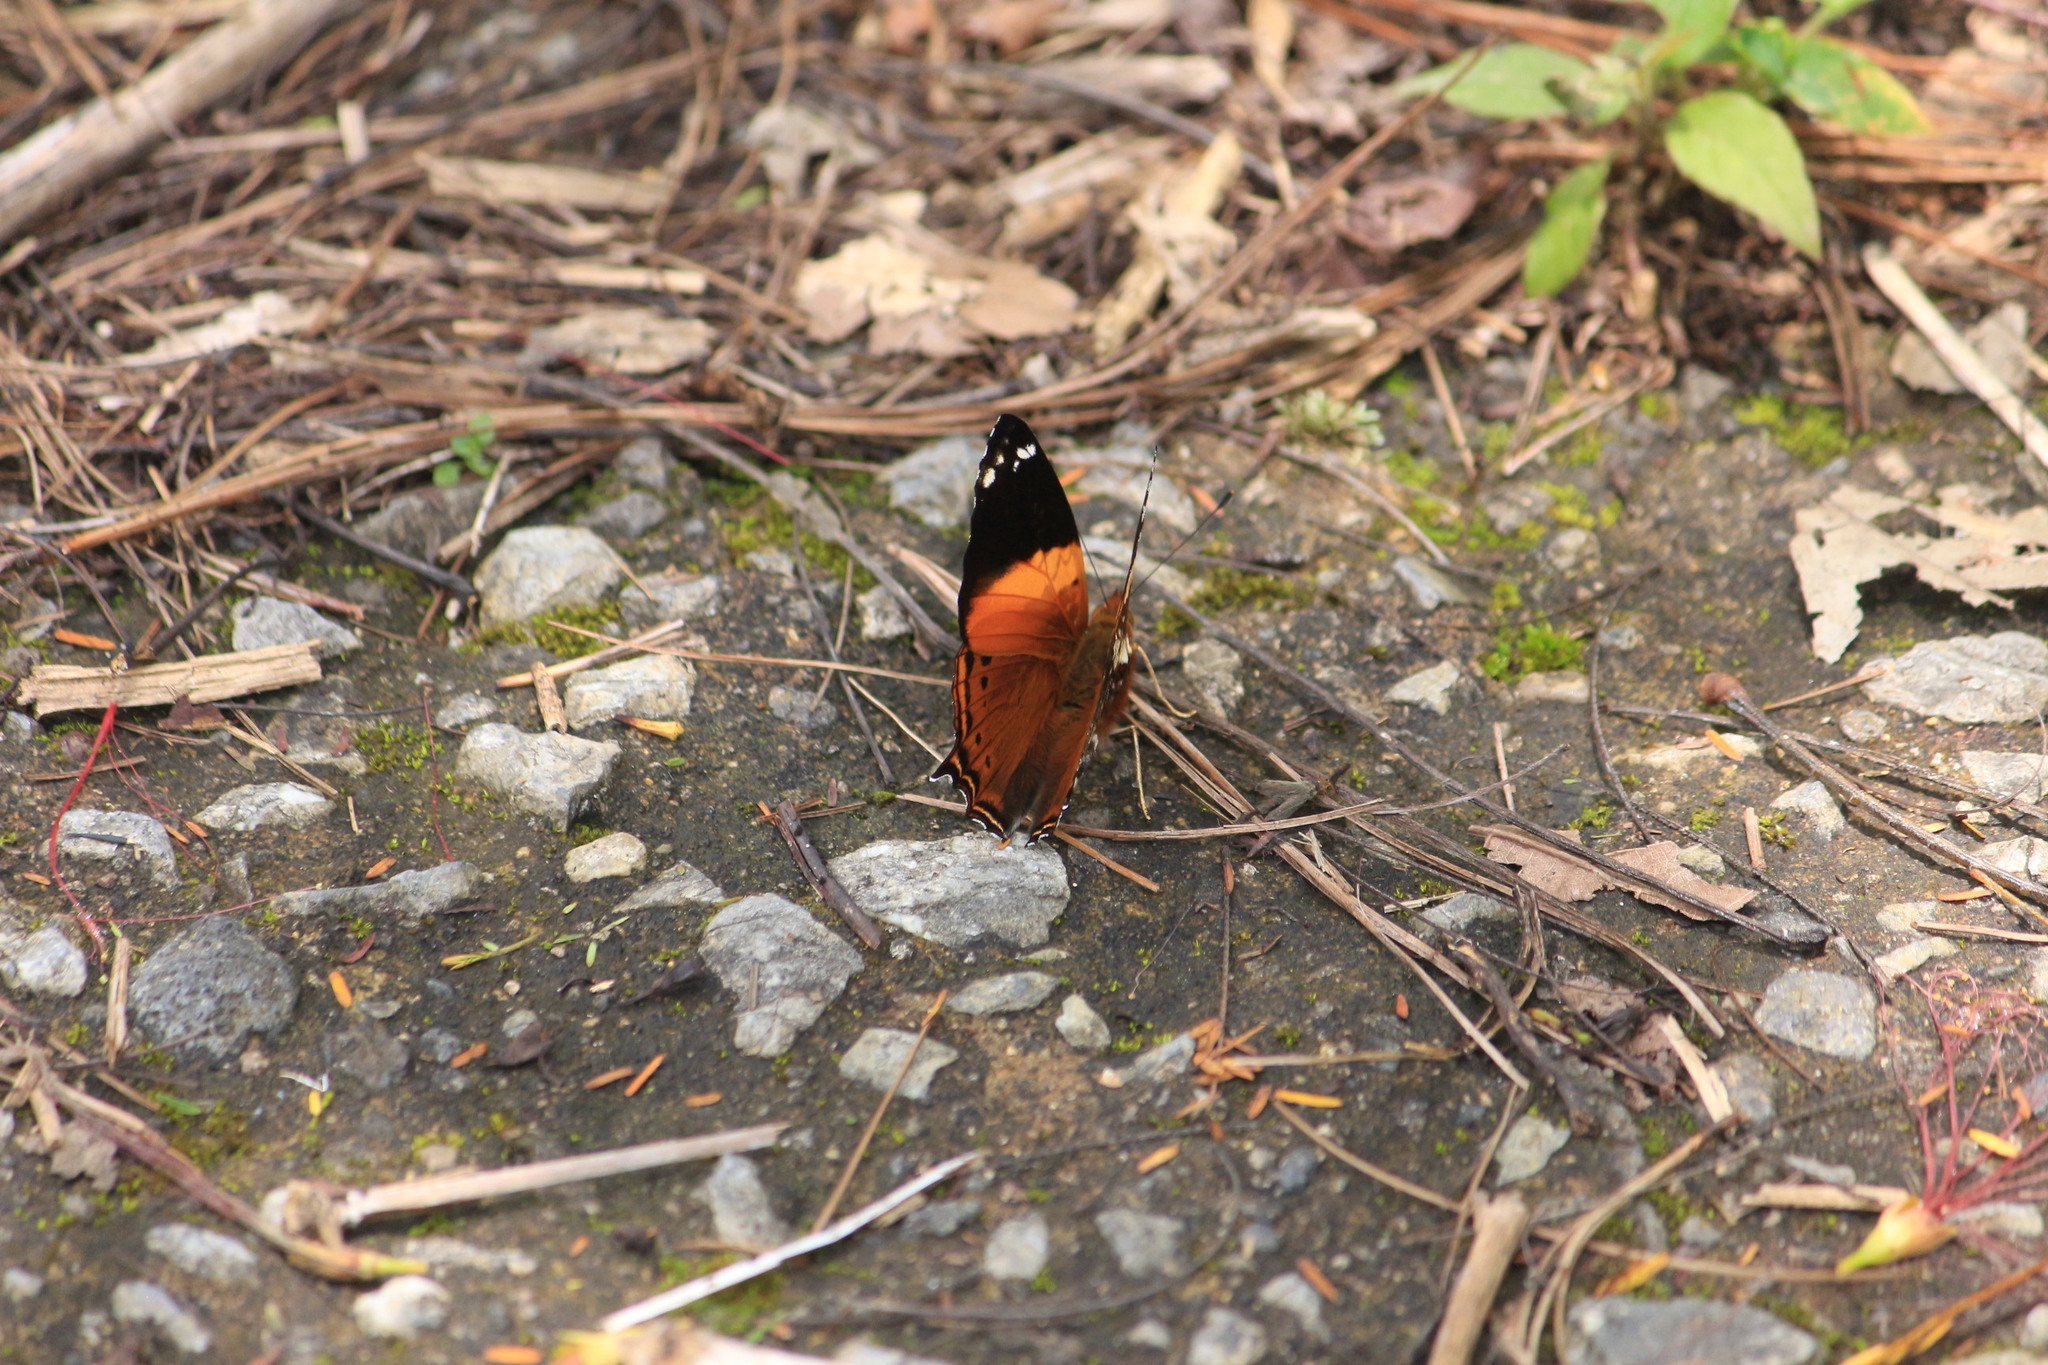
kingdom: Animalia
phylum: Arthropoda
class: Insecta
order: Lepidoptera
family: Nymphalidae
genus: Hypanartia
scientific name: Hypanartia godmanii
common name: Godman's mapwing
